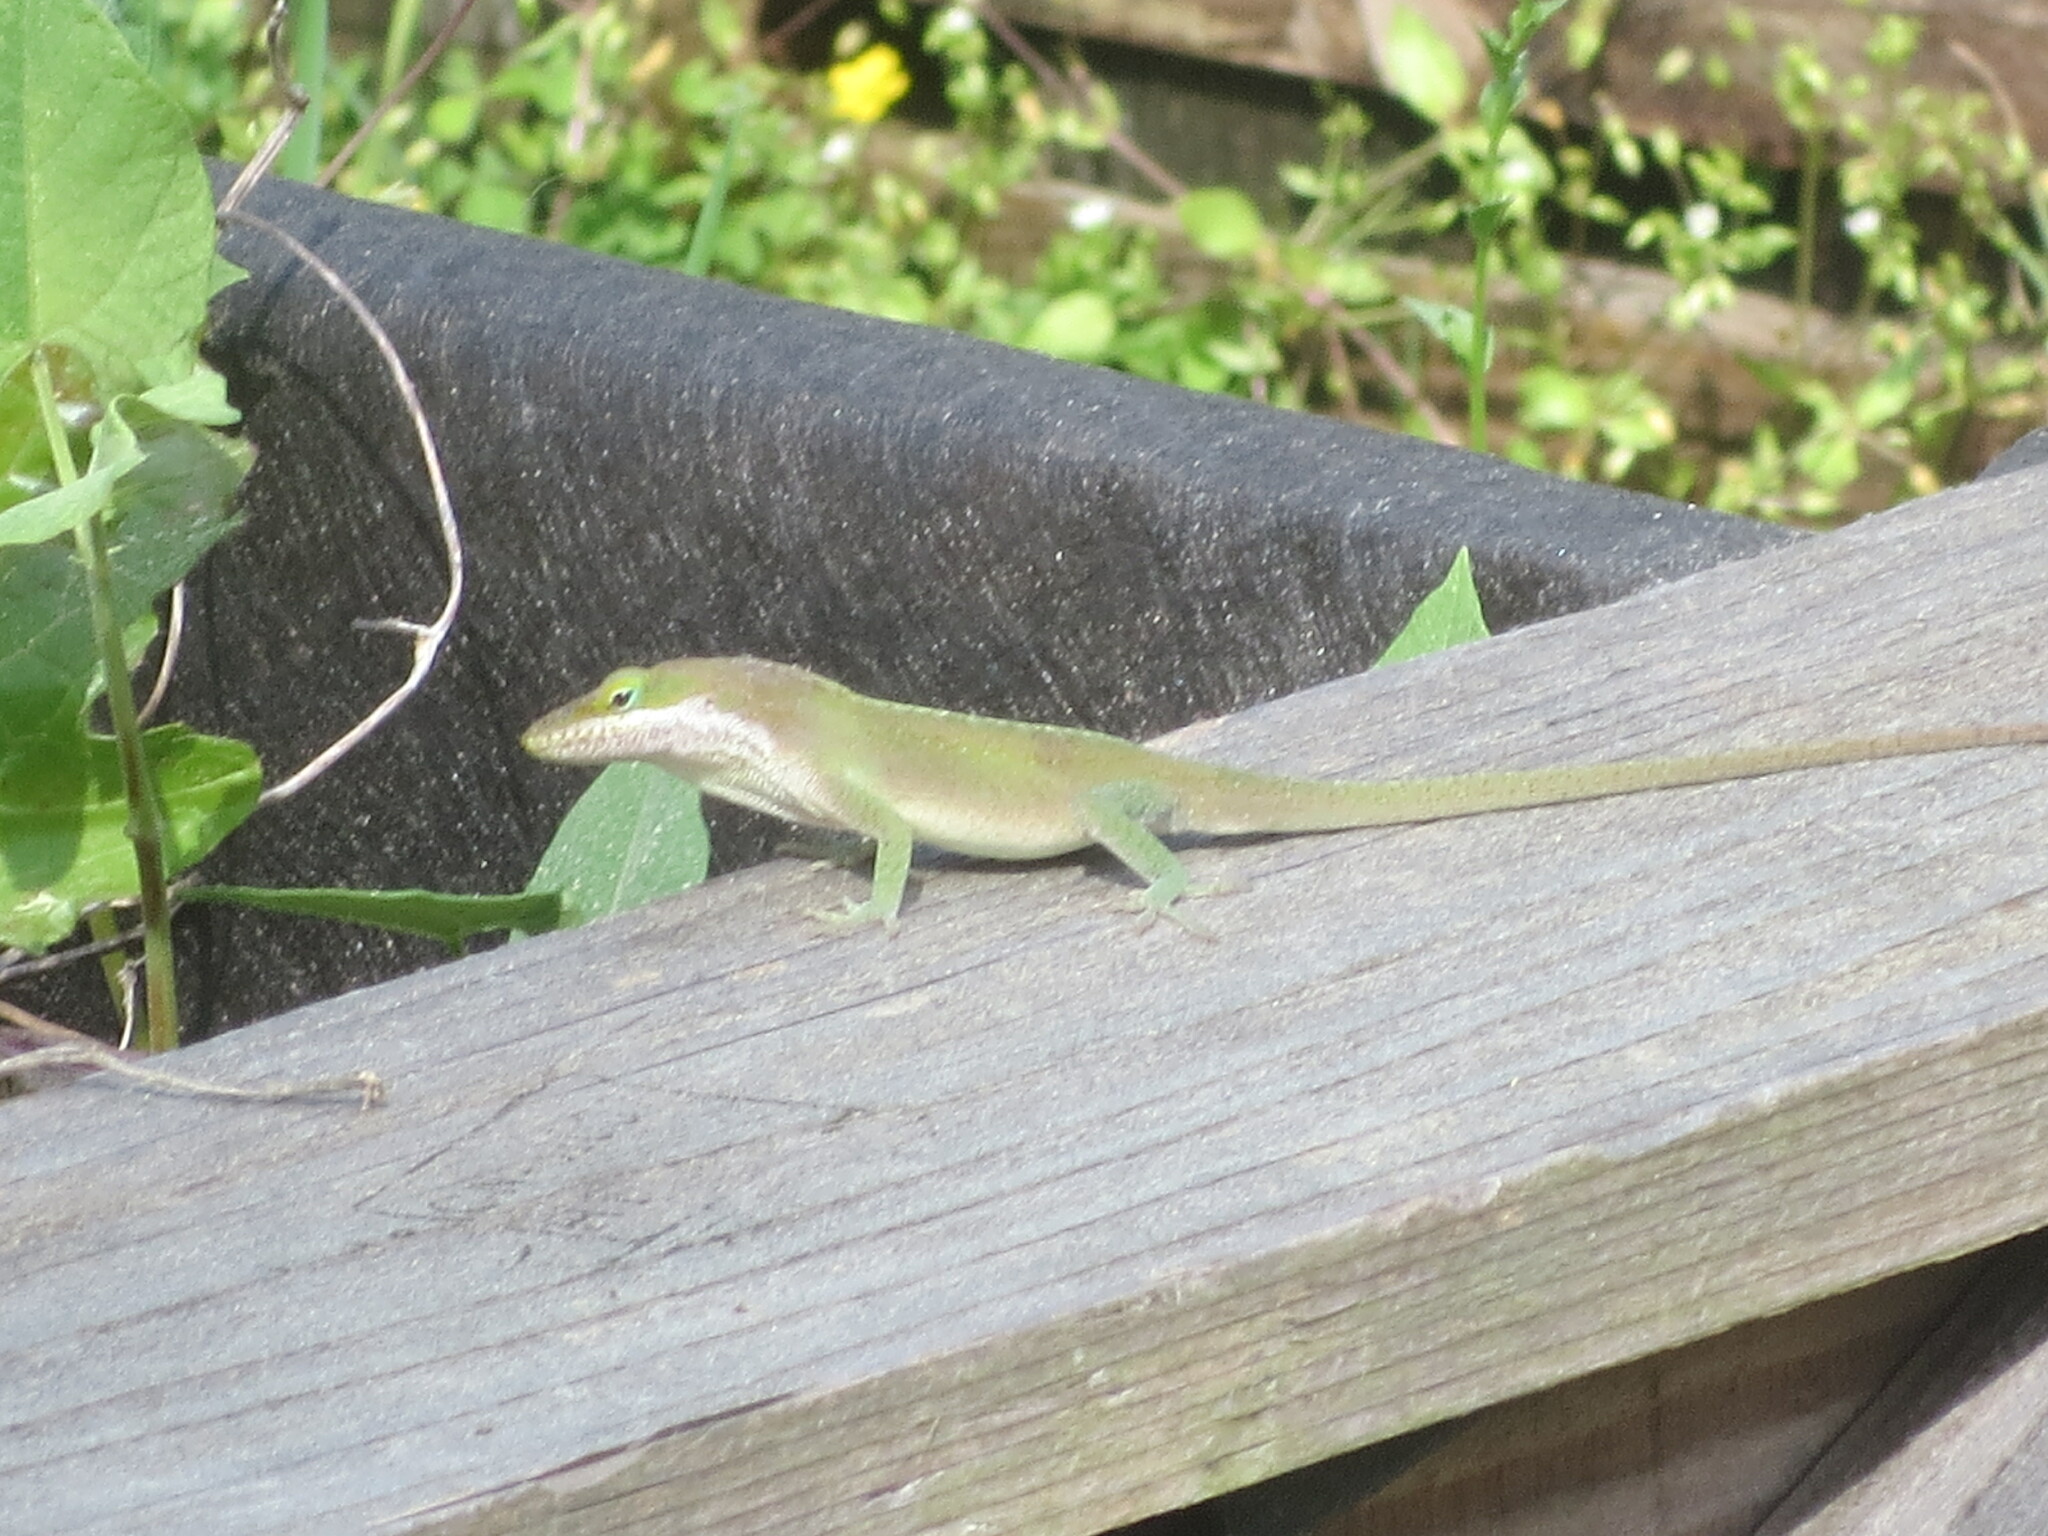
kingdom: Animalia
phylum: Chordata
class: Squamata
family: Dactyloidae
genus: Anolis
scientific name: Anolis carolinensis
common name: Green anole
